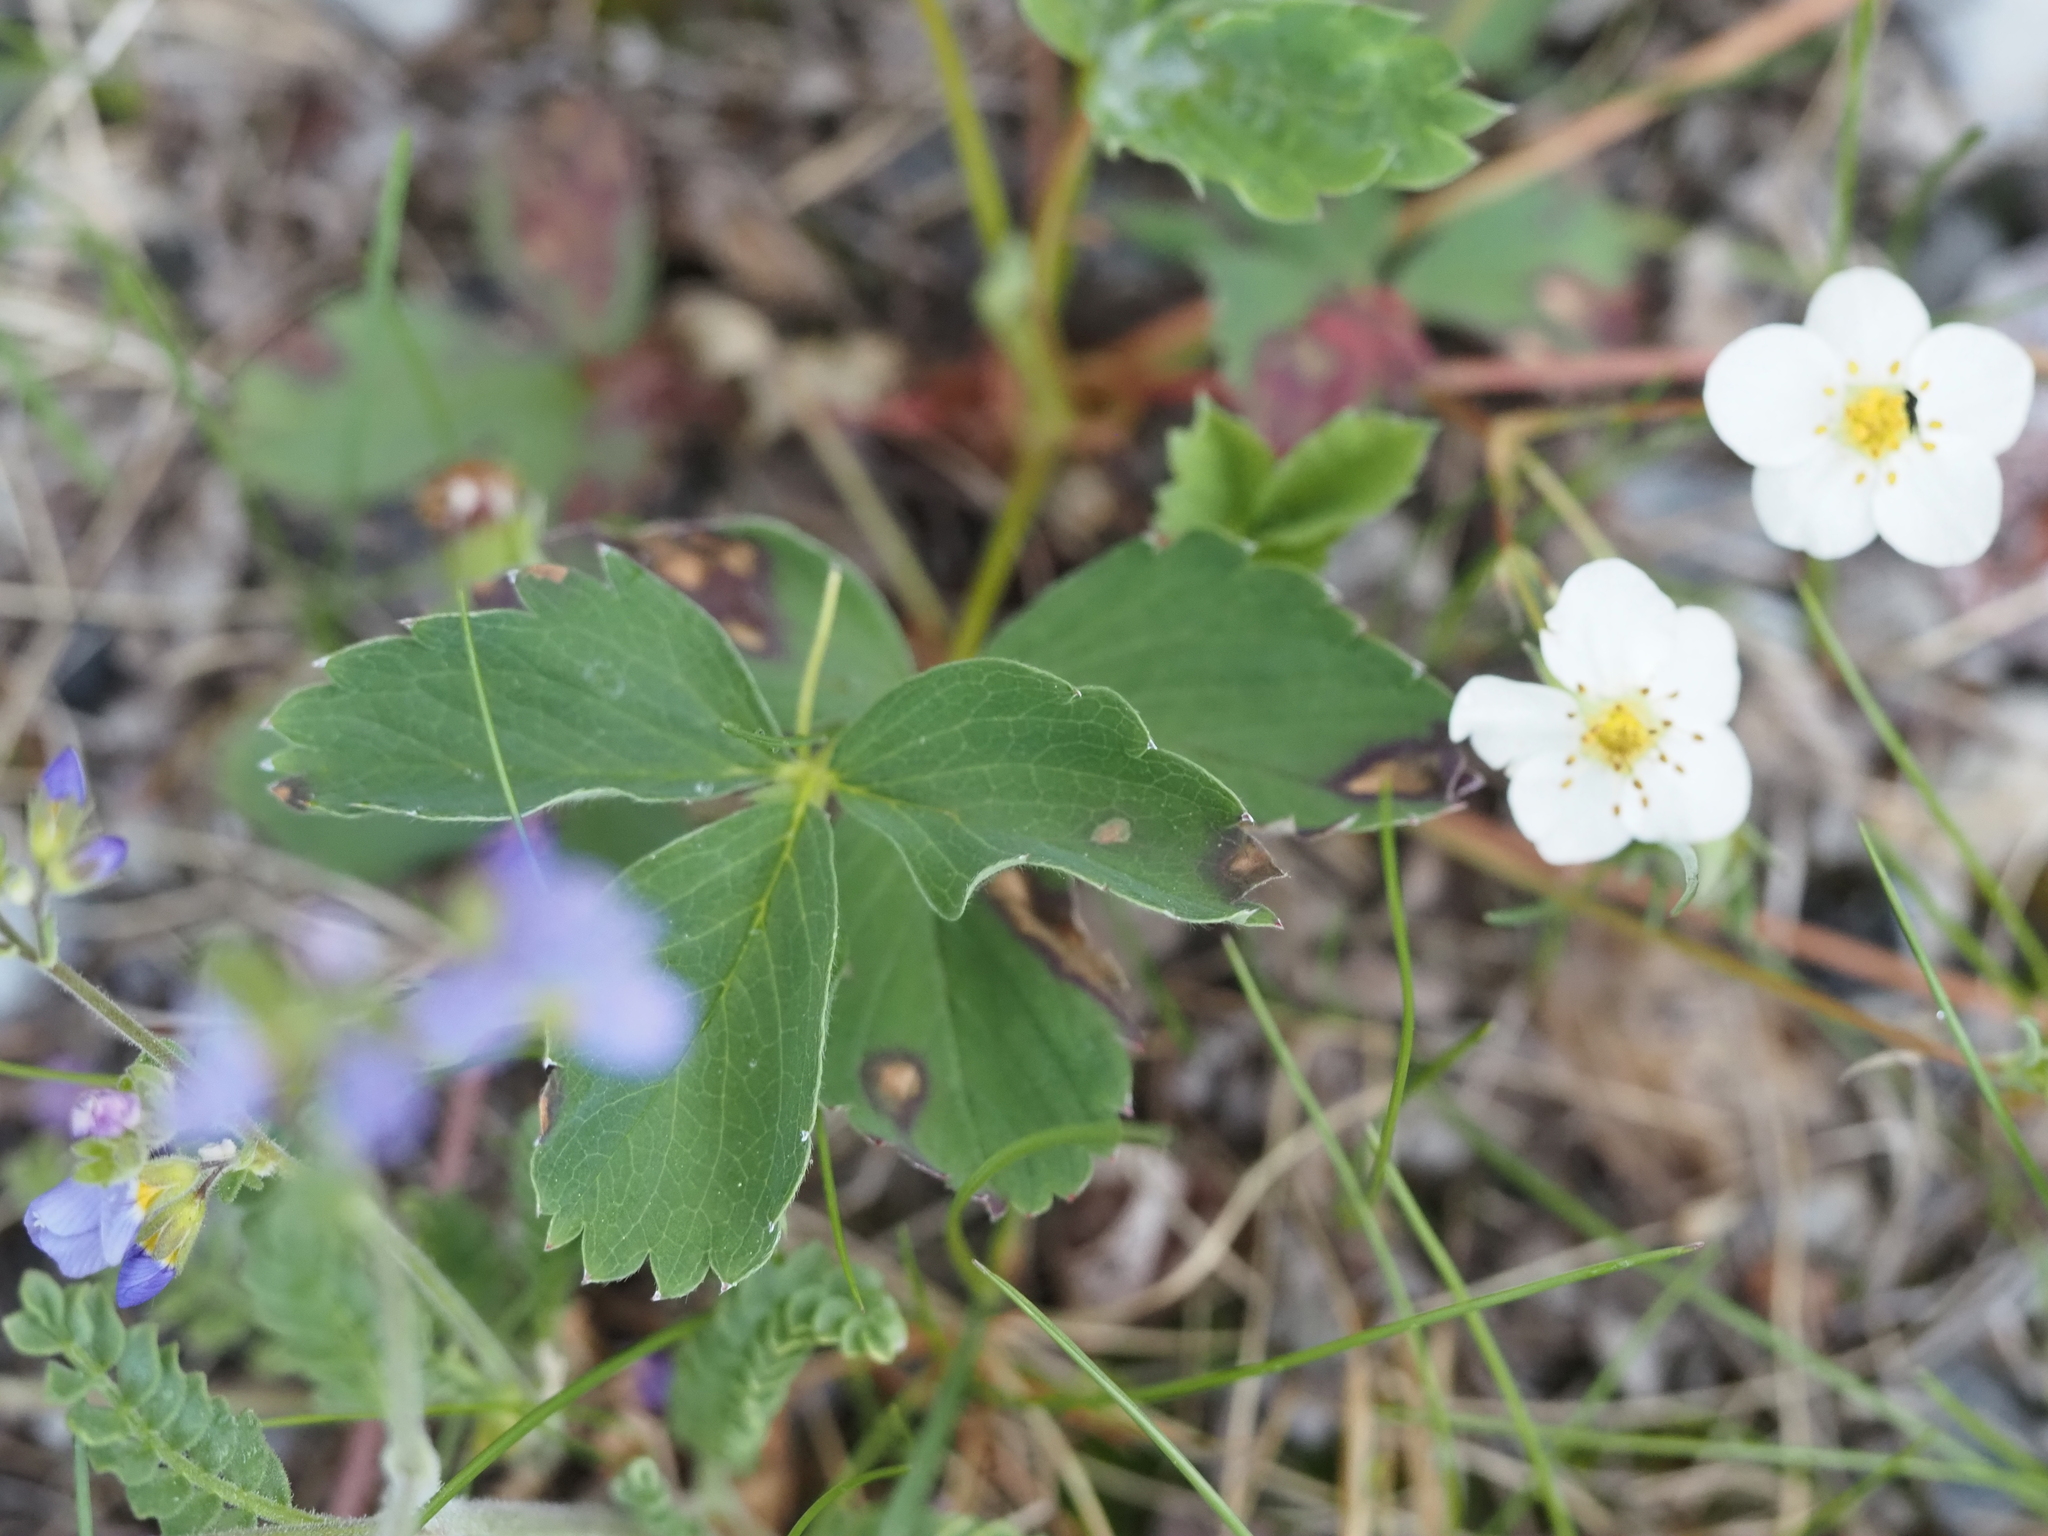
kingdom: Plantae
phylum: Tracheophyta
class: Magnoliopsida
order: Rosales
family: Rosaceae
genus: Fragaria
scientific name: Fragaria virginiana
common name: Thickleaved wild strawberry
